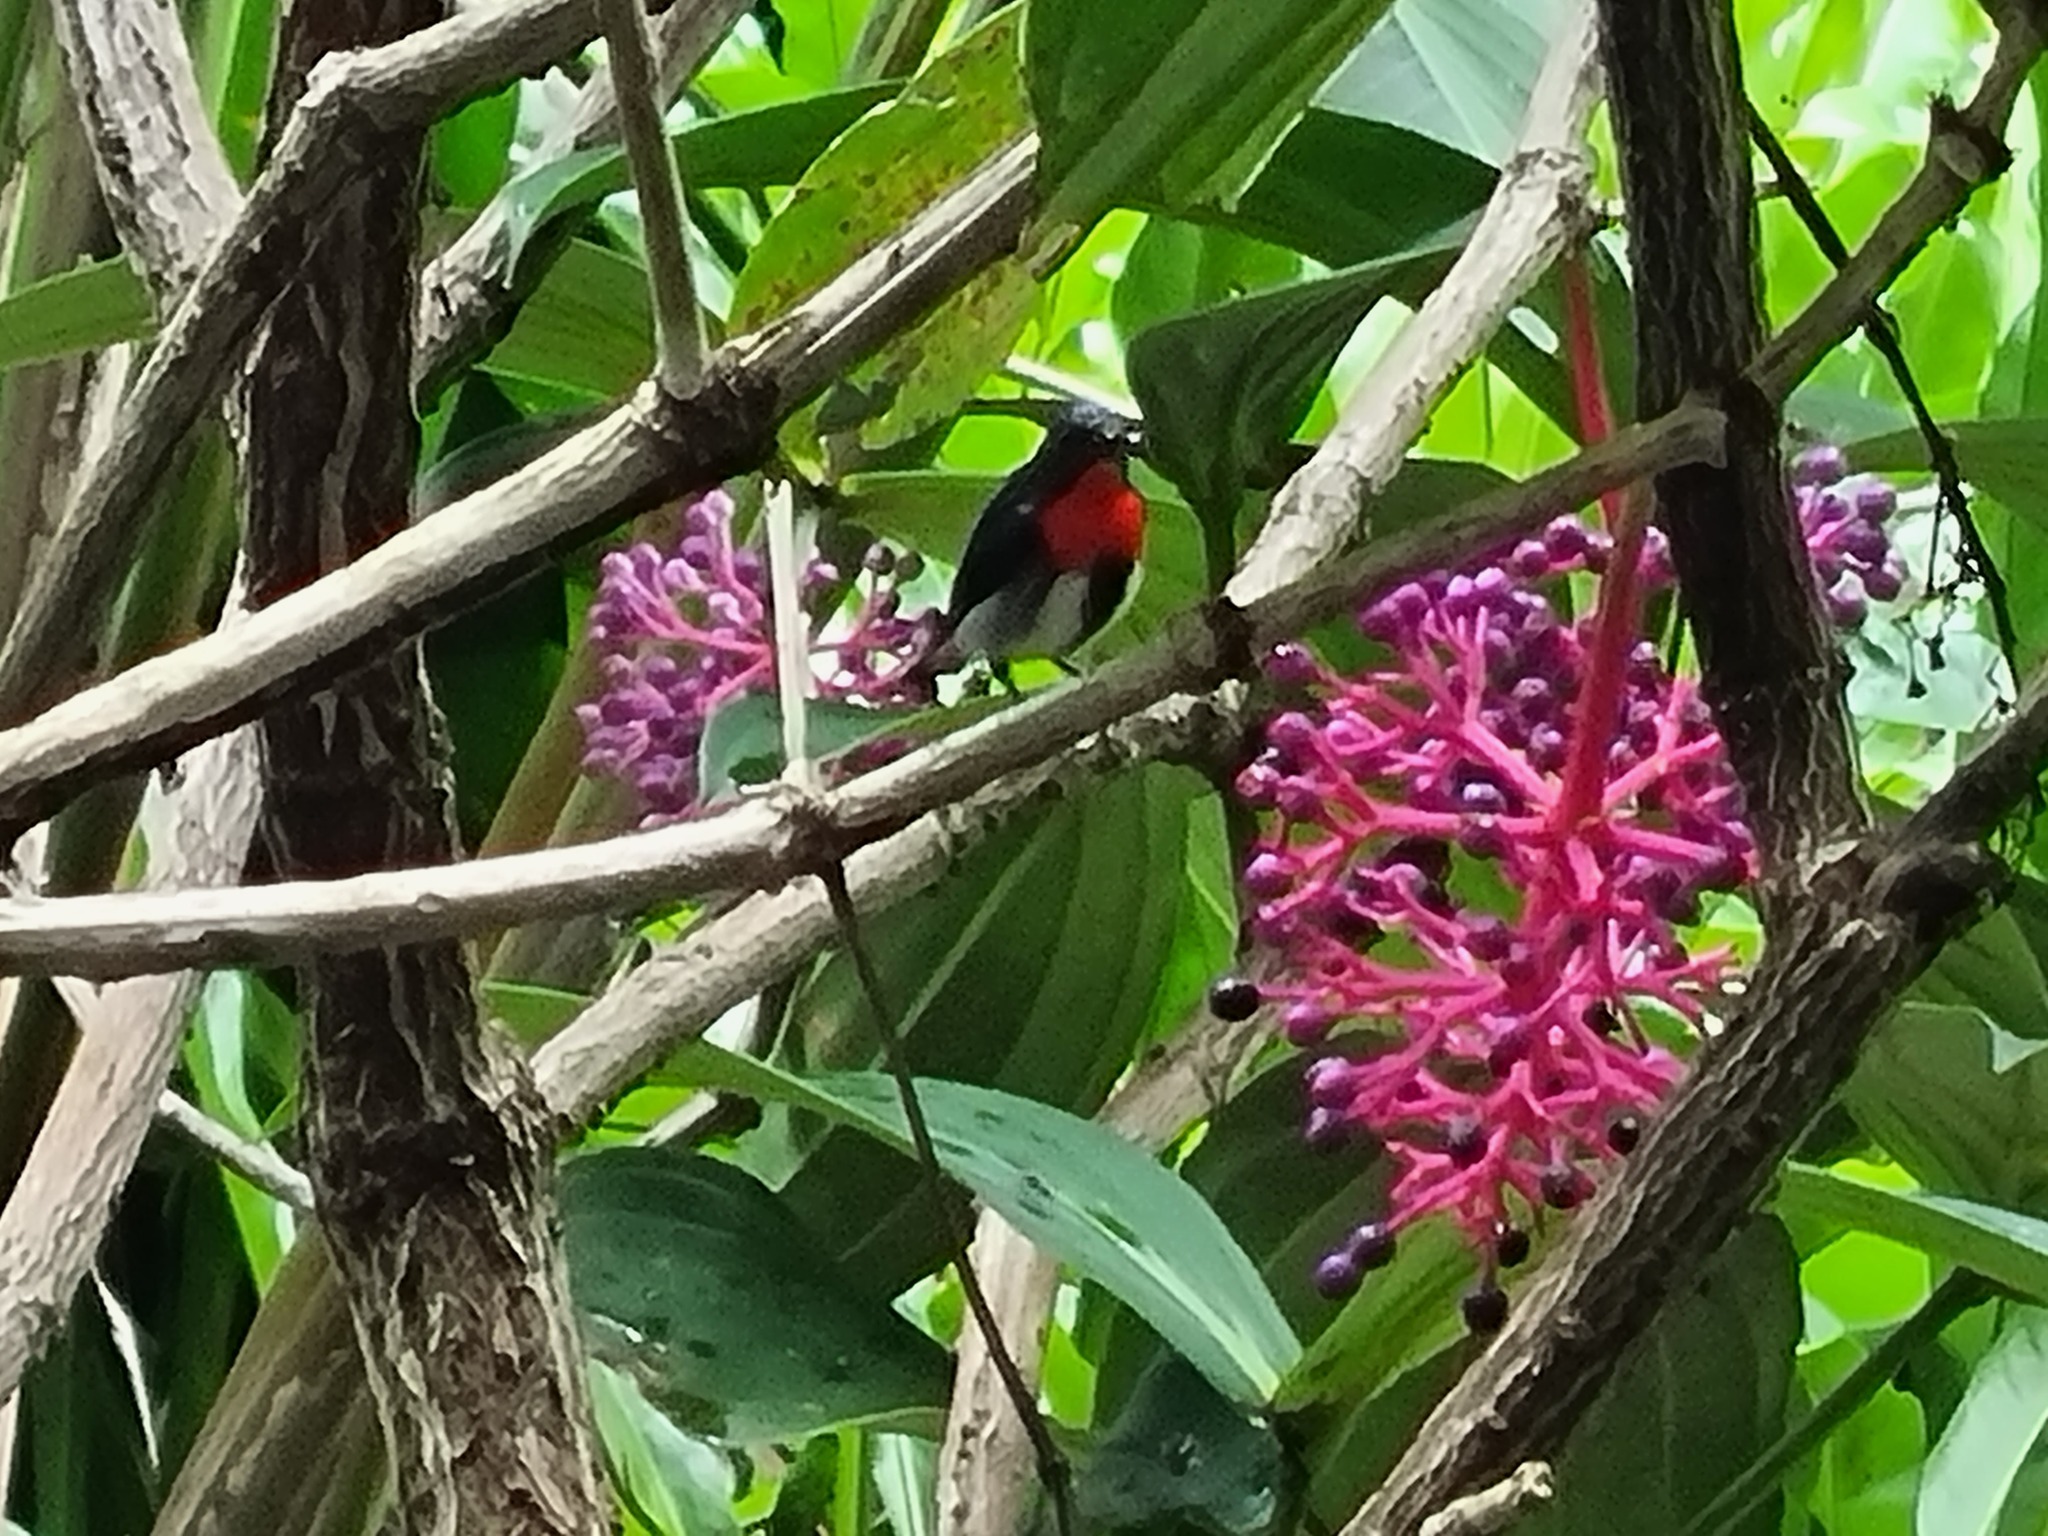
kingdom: Animalia
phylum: Chordata
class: Aves
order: Passeriformes
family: Dicaeidae
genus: Dicaeum
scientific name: Dicaeum hirundinaceum
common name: Mistletoebird
